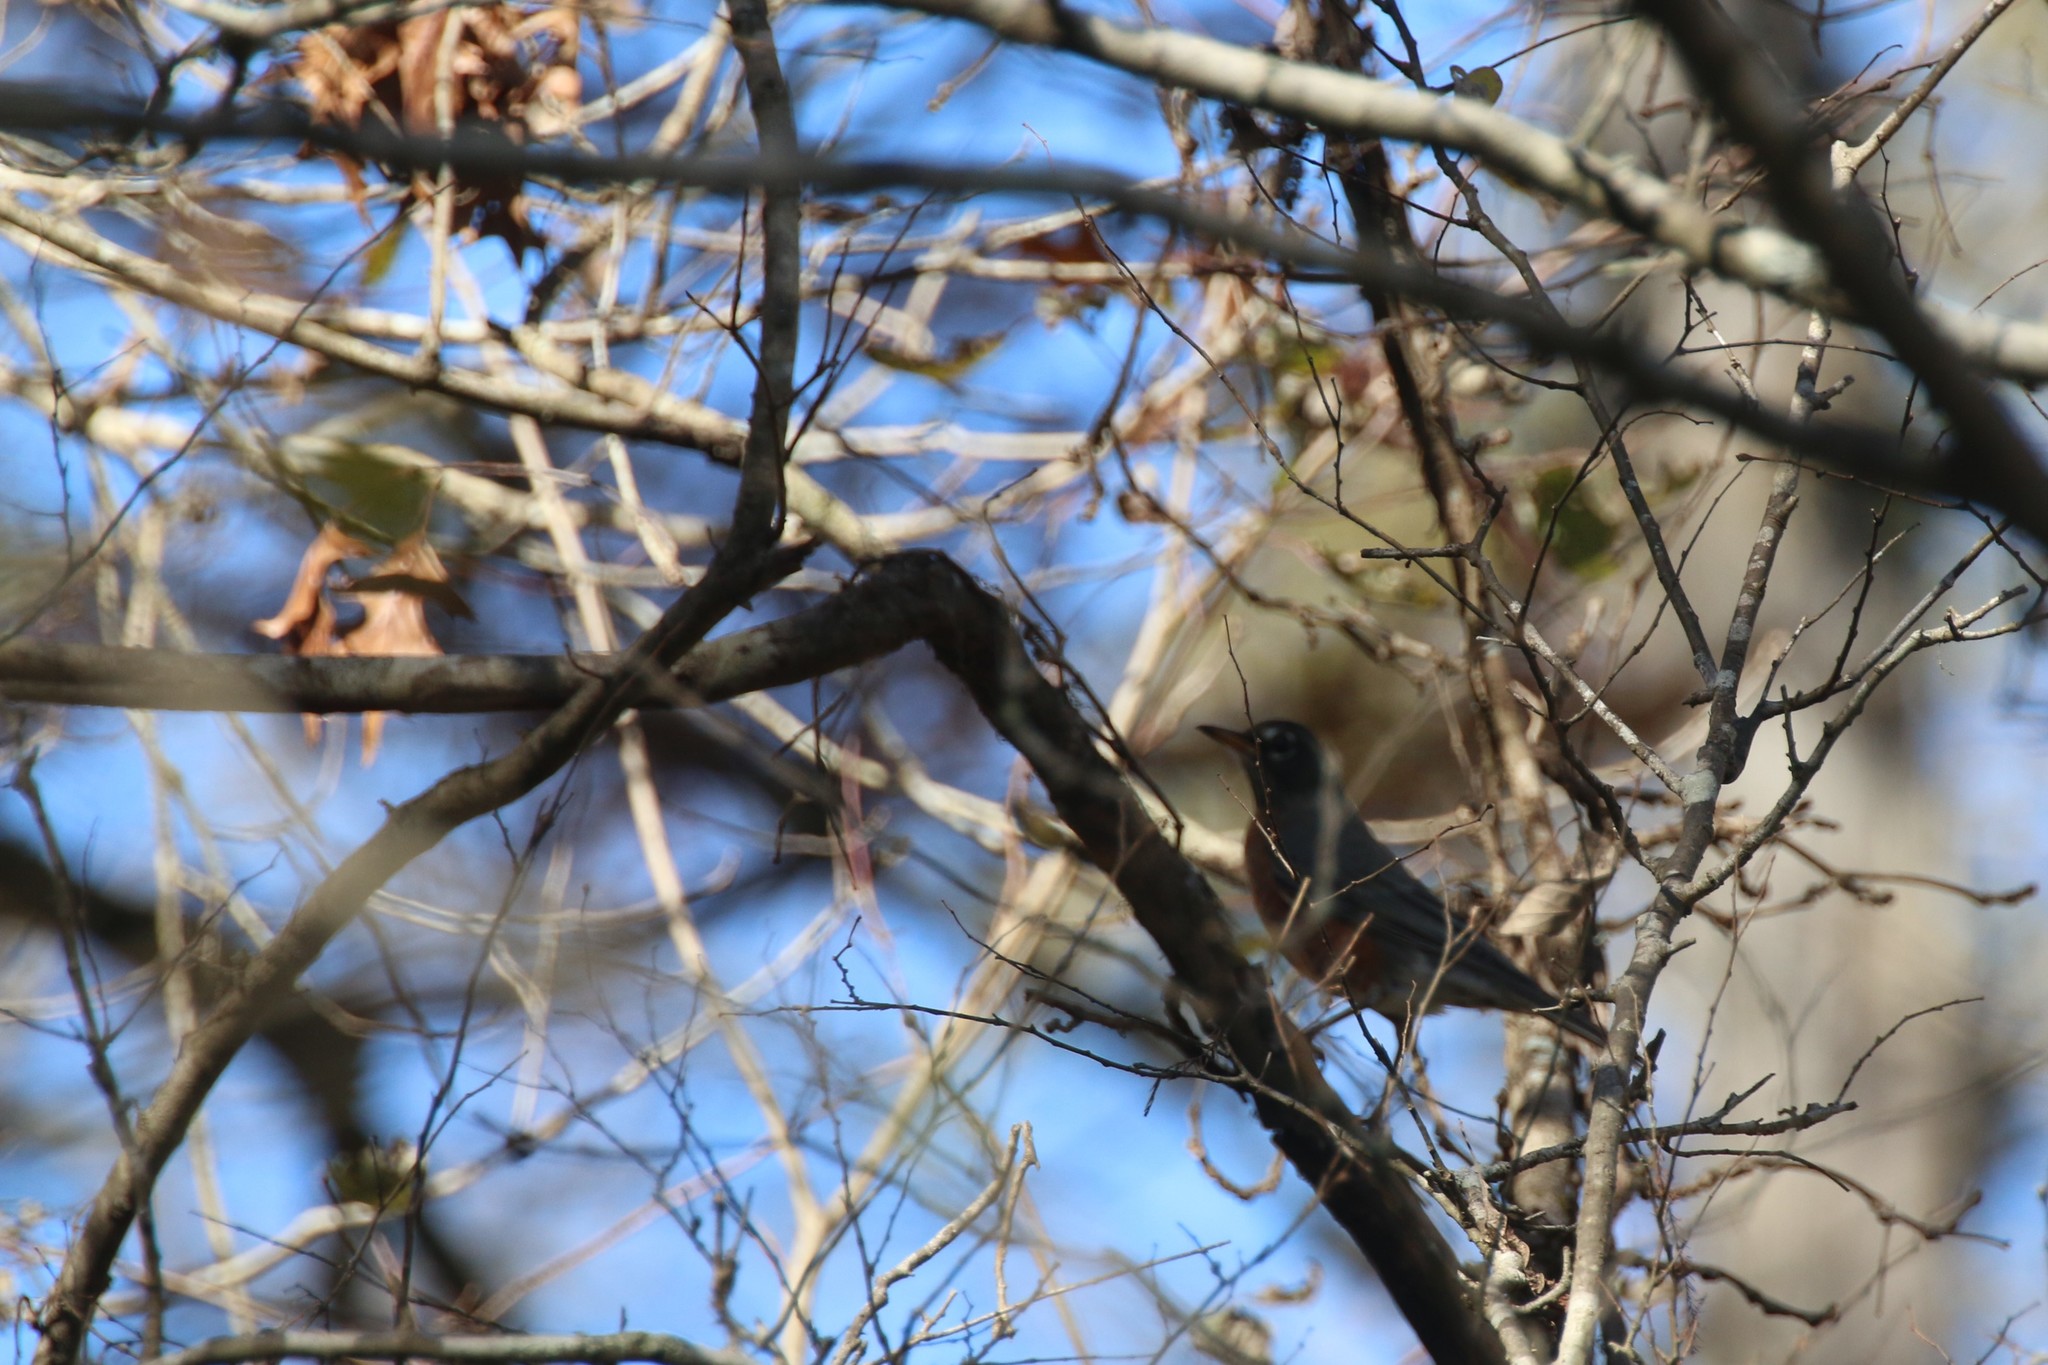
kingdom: Animalia
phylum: Chordata
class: Aves
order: Passeriformes
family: Turdidae
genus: Turdus
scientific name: Turdus migratorius
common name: American robin
